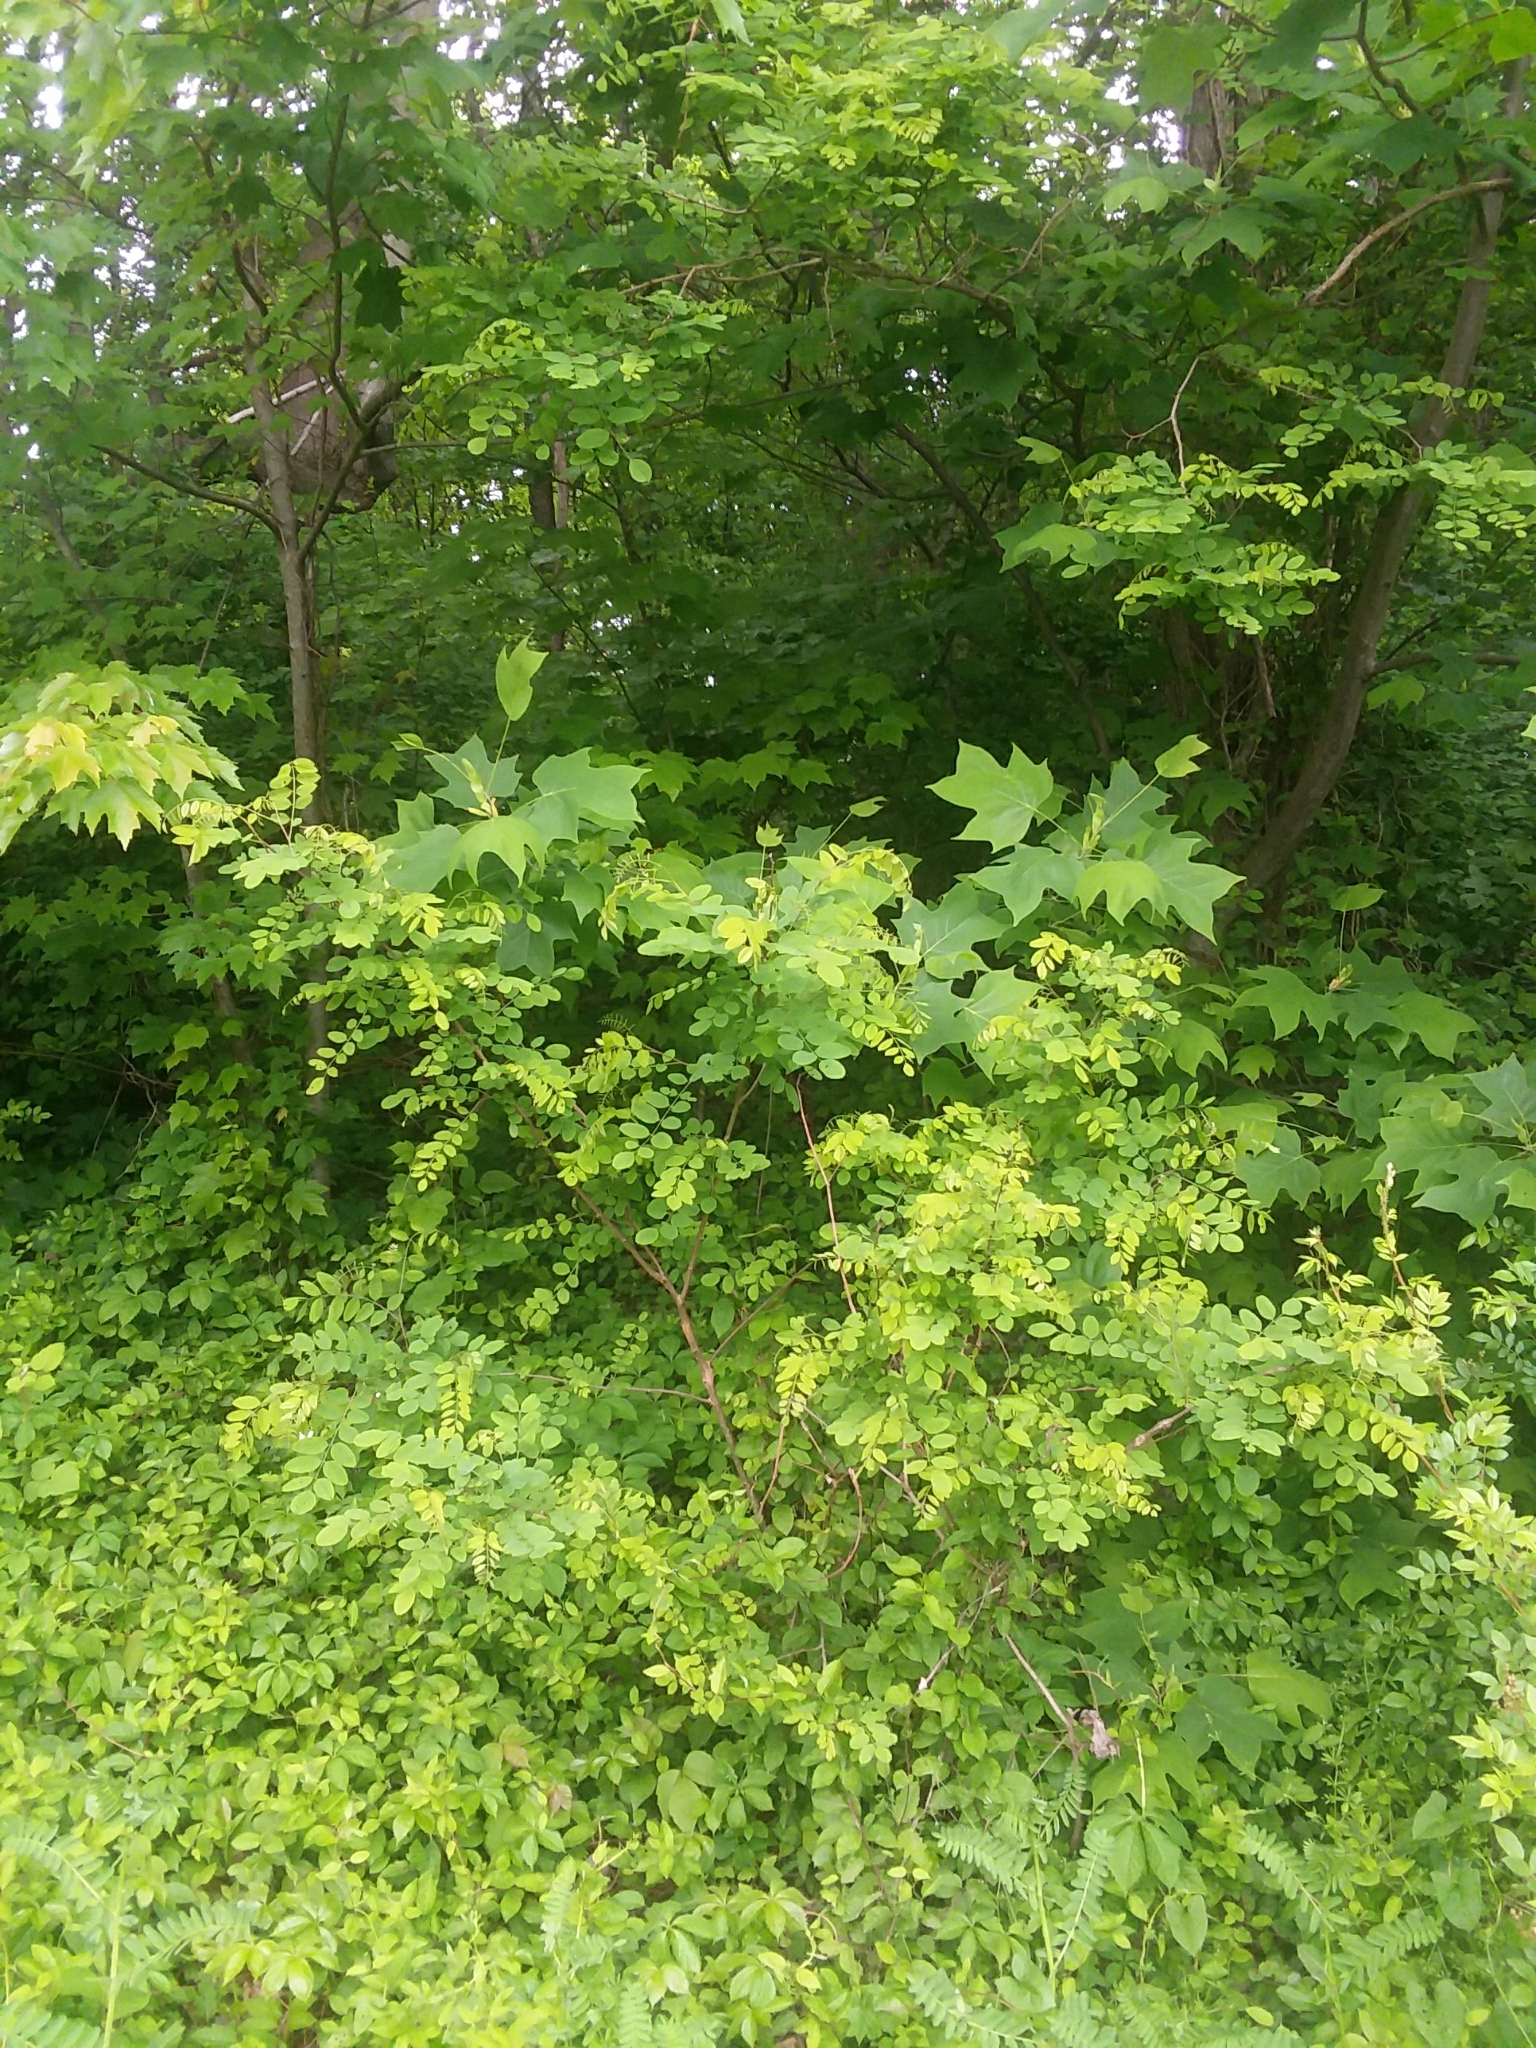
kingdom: Plantae
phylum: Tracheophyta
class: Magnoliopsida
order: Magnoliales
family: Magnoliaceae
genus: Liriodendron
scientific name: Liriodendron tulipifera
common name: Tulip tree
